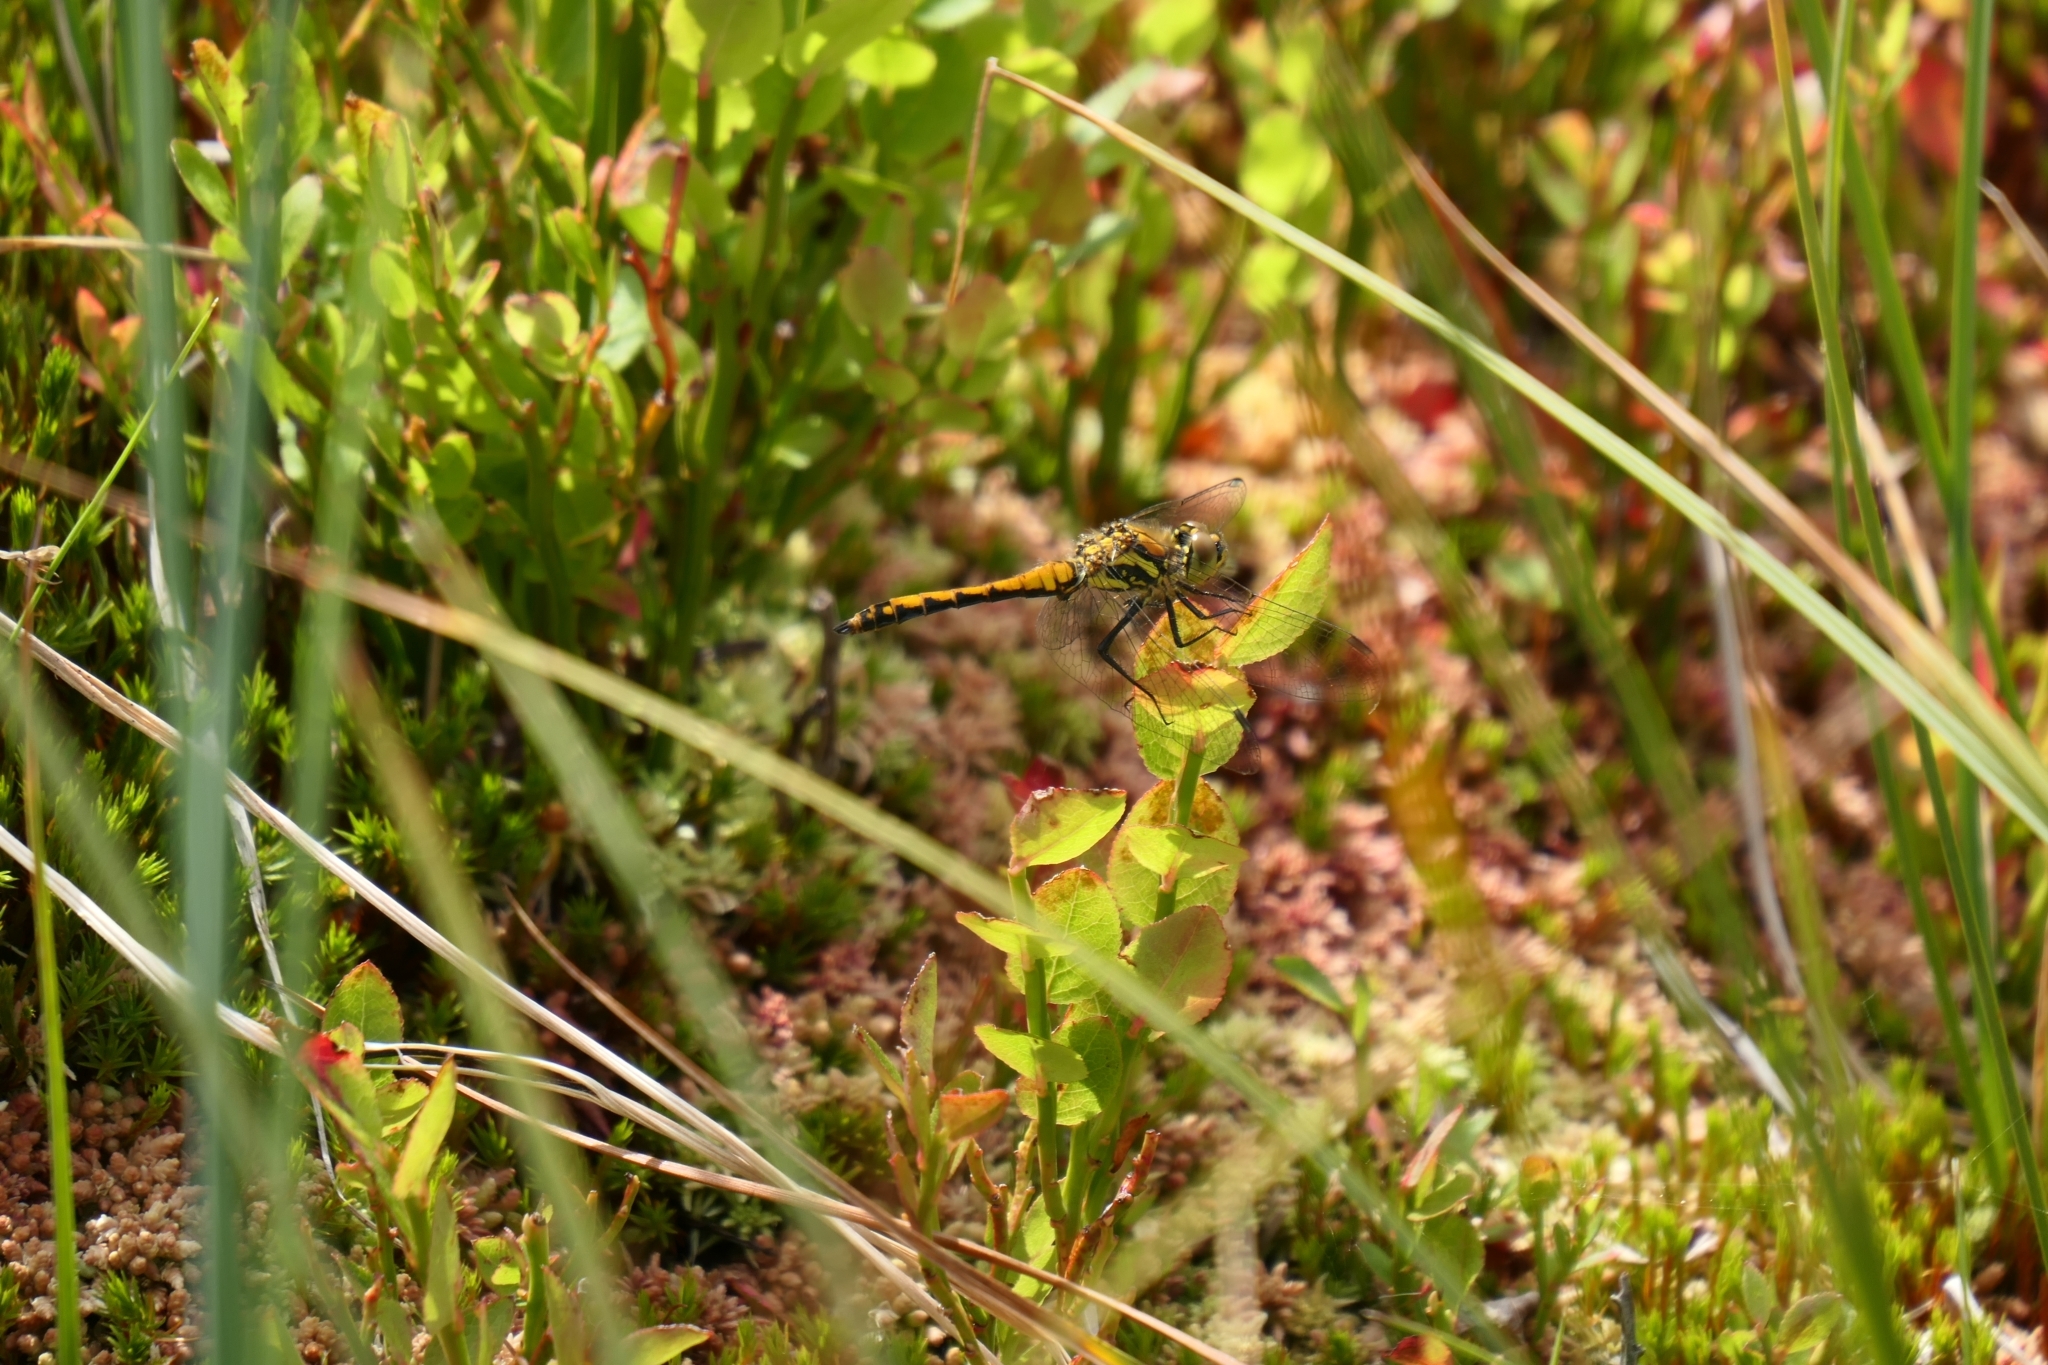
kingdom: Animalia
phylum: Arthropoda
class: Insecta
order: Odonata
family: Libellulidae
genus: Sympetrum
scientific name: Sympetrum danae
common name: Black darter
